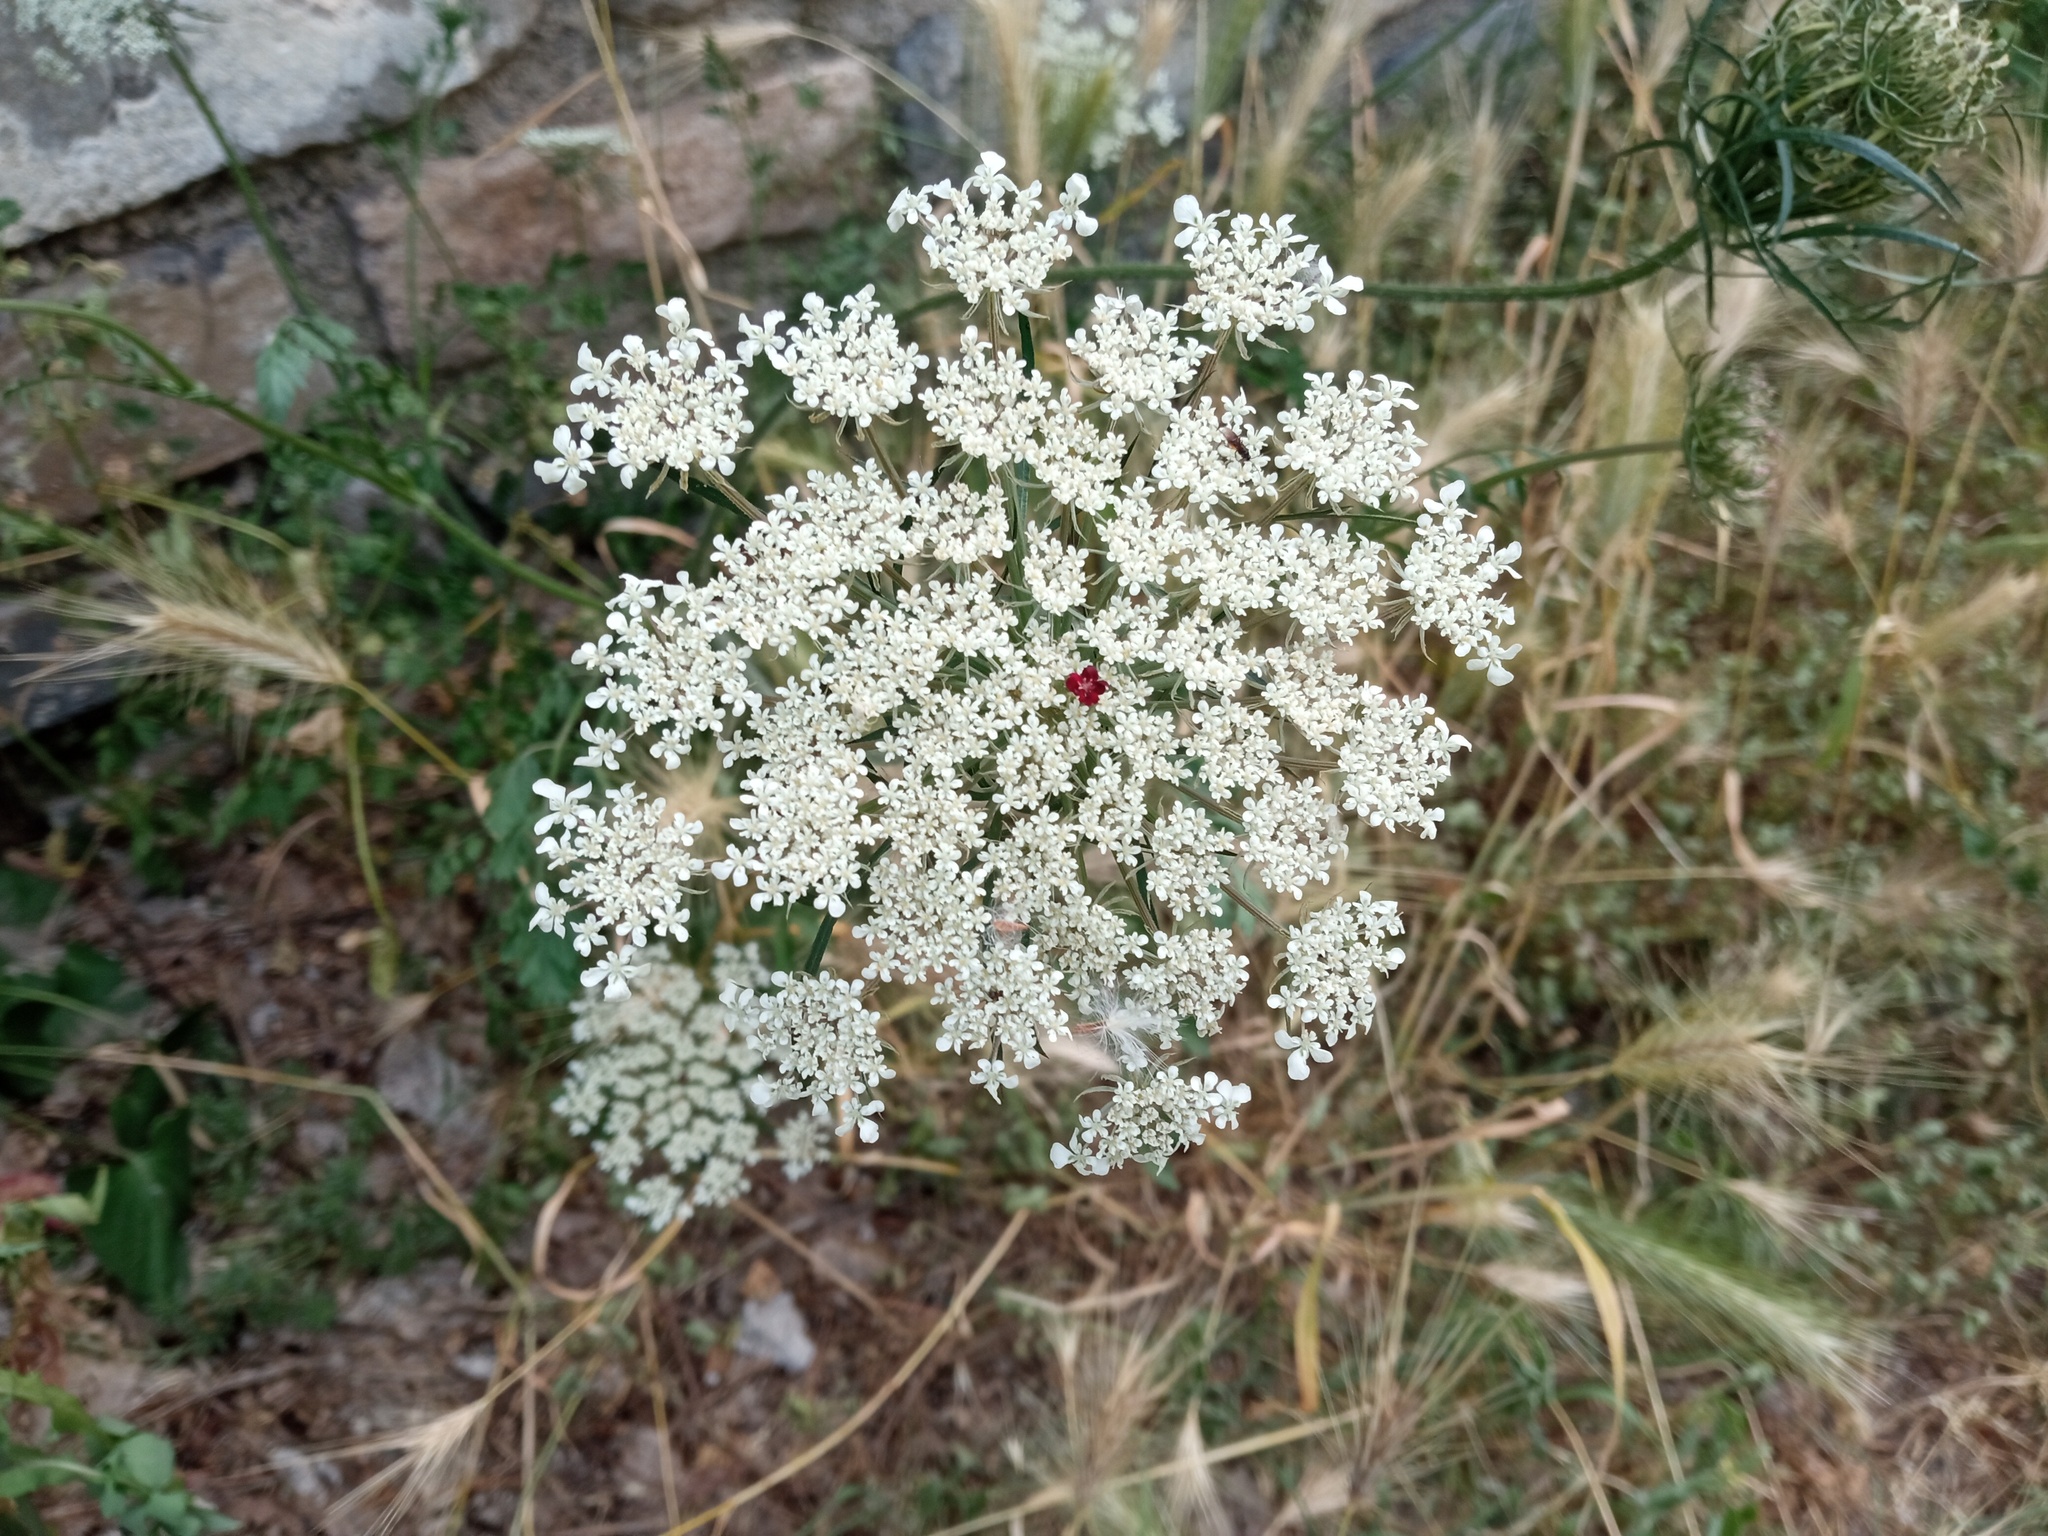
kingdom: Plantae
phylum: Tracheophyta
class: Magnoliopsida
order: Apiales
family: Apiaceae
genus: Daucus
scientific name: Daucus carota
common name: Wild carrot
